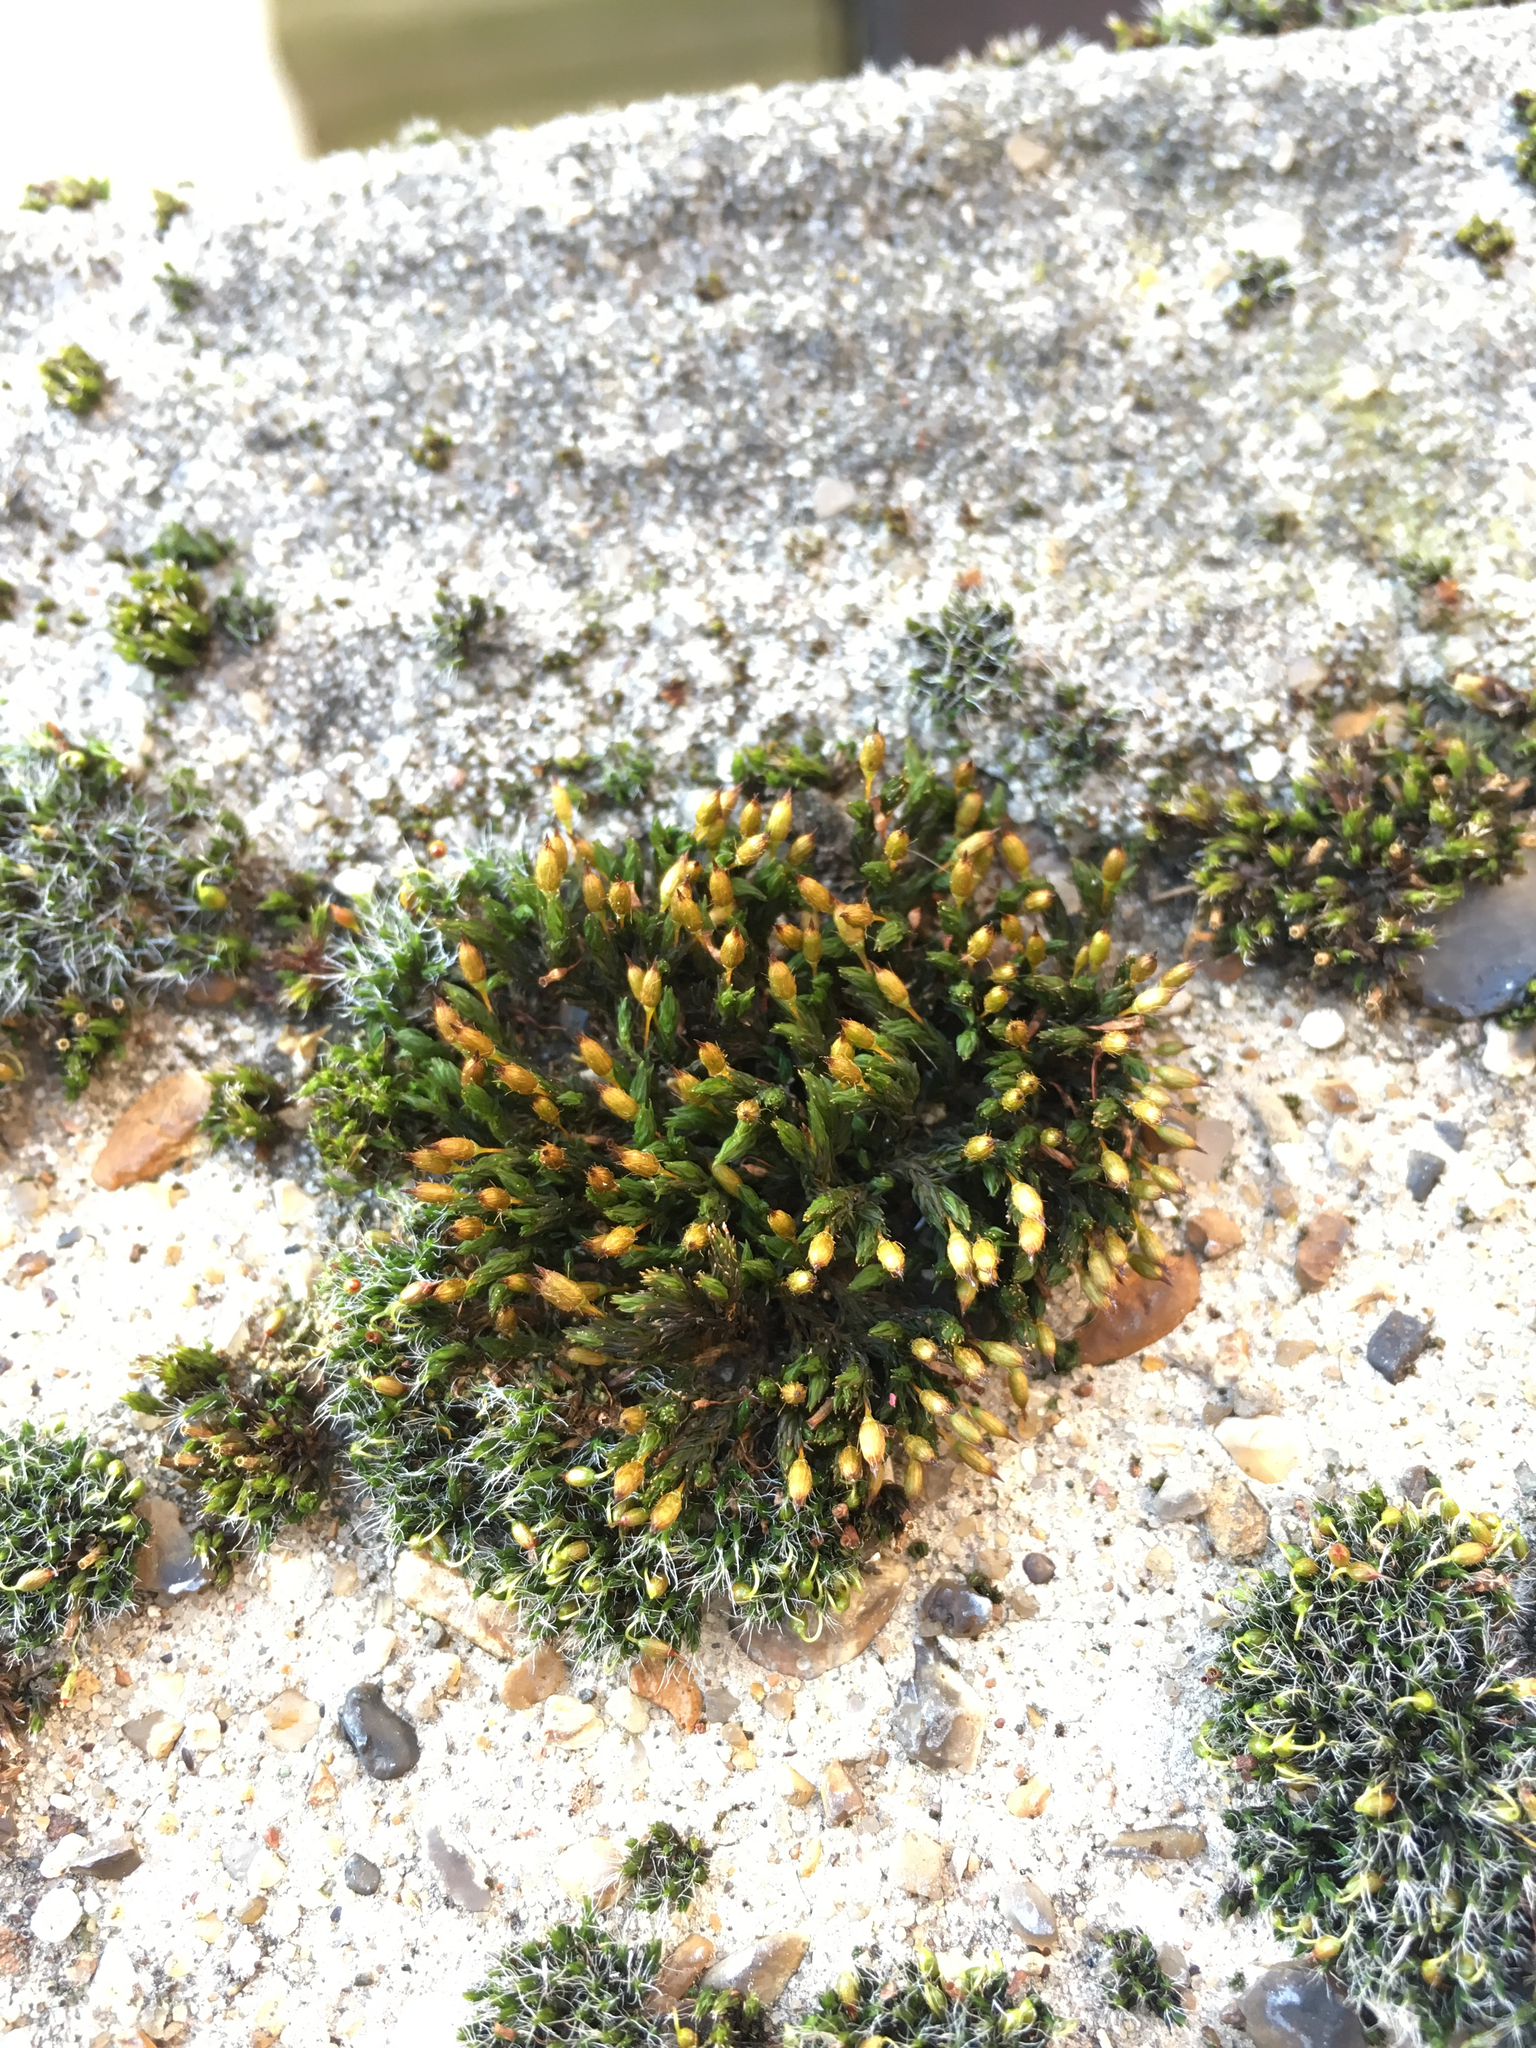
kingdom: Plantae
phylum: Bryophyta
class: Bryopsida
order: Orthotrichales
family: Orthotrichaceae
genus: Orthotrichum
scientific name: Orthotrichum anomalum
